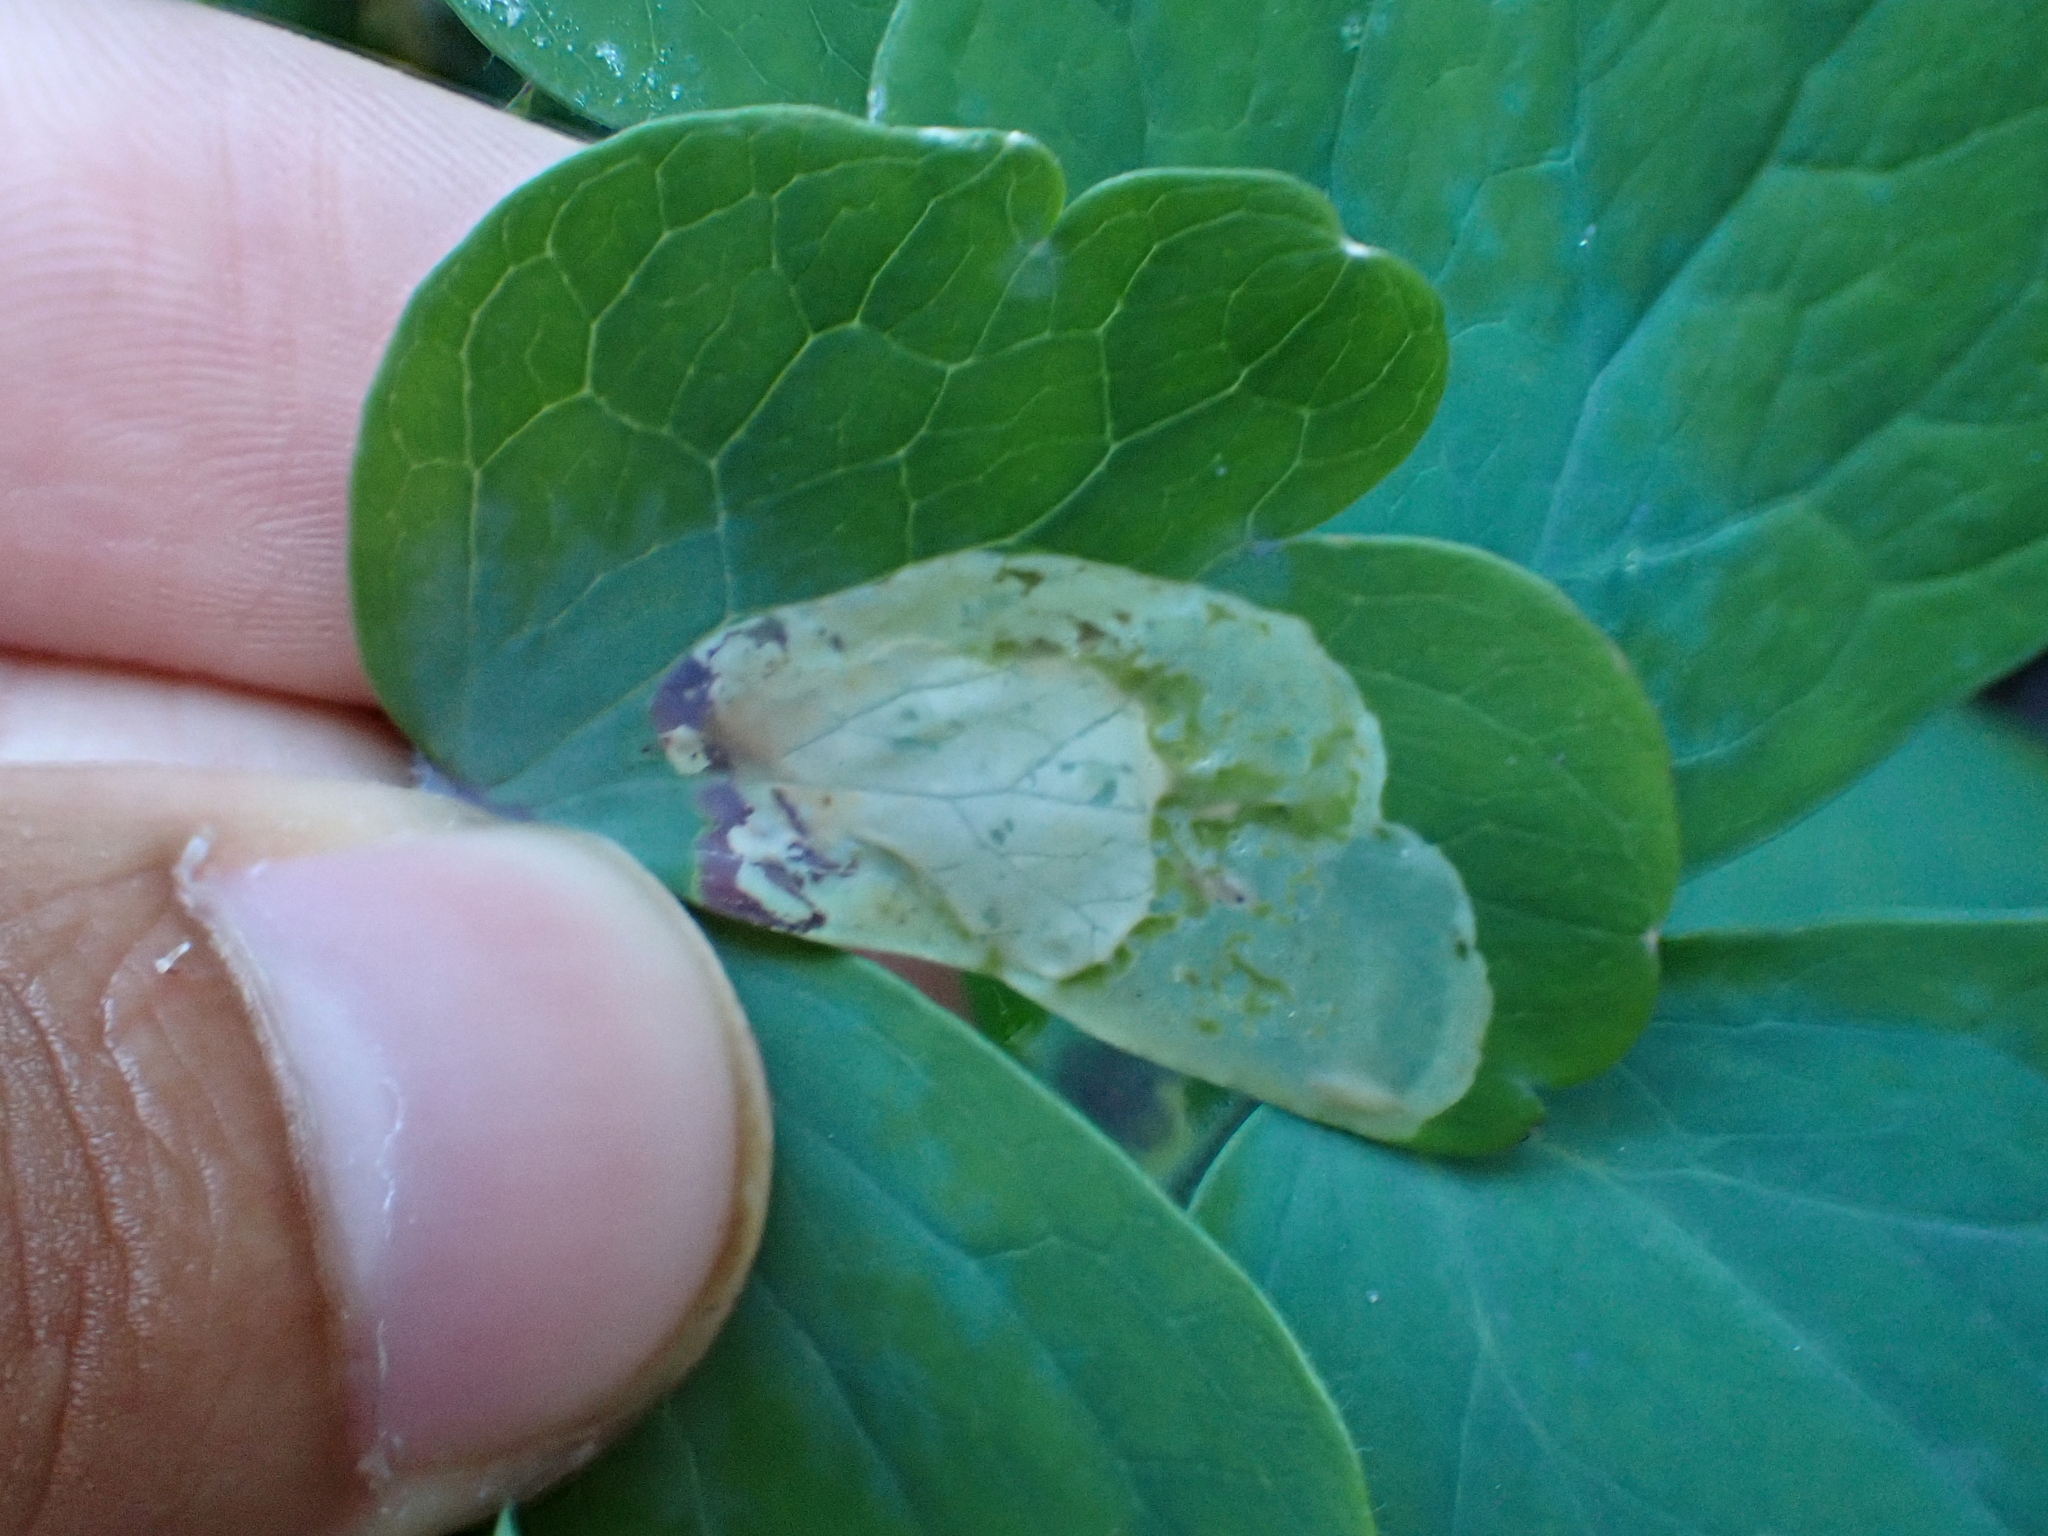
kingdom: Animalia
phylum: Arthropoda
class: Insecta
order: Diptera
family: Agromyzidae
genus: Phytomyza
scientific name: Phytomyza aquilegiae
